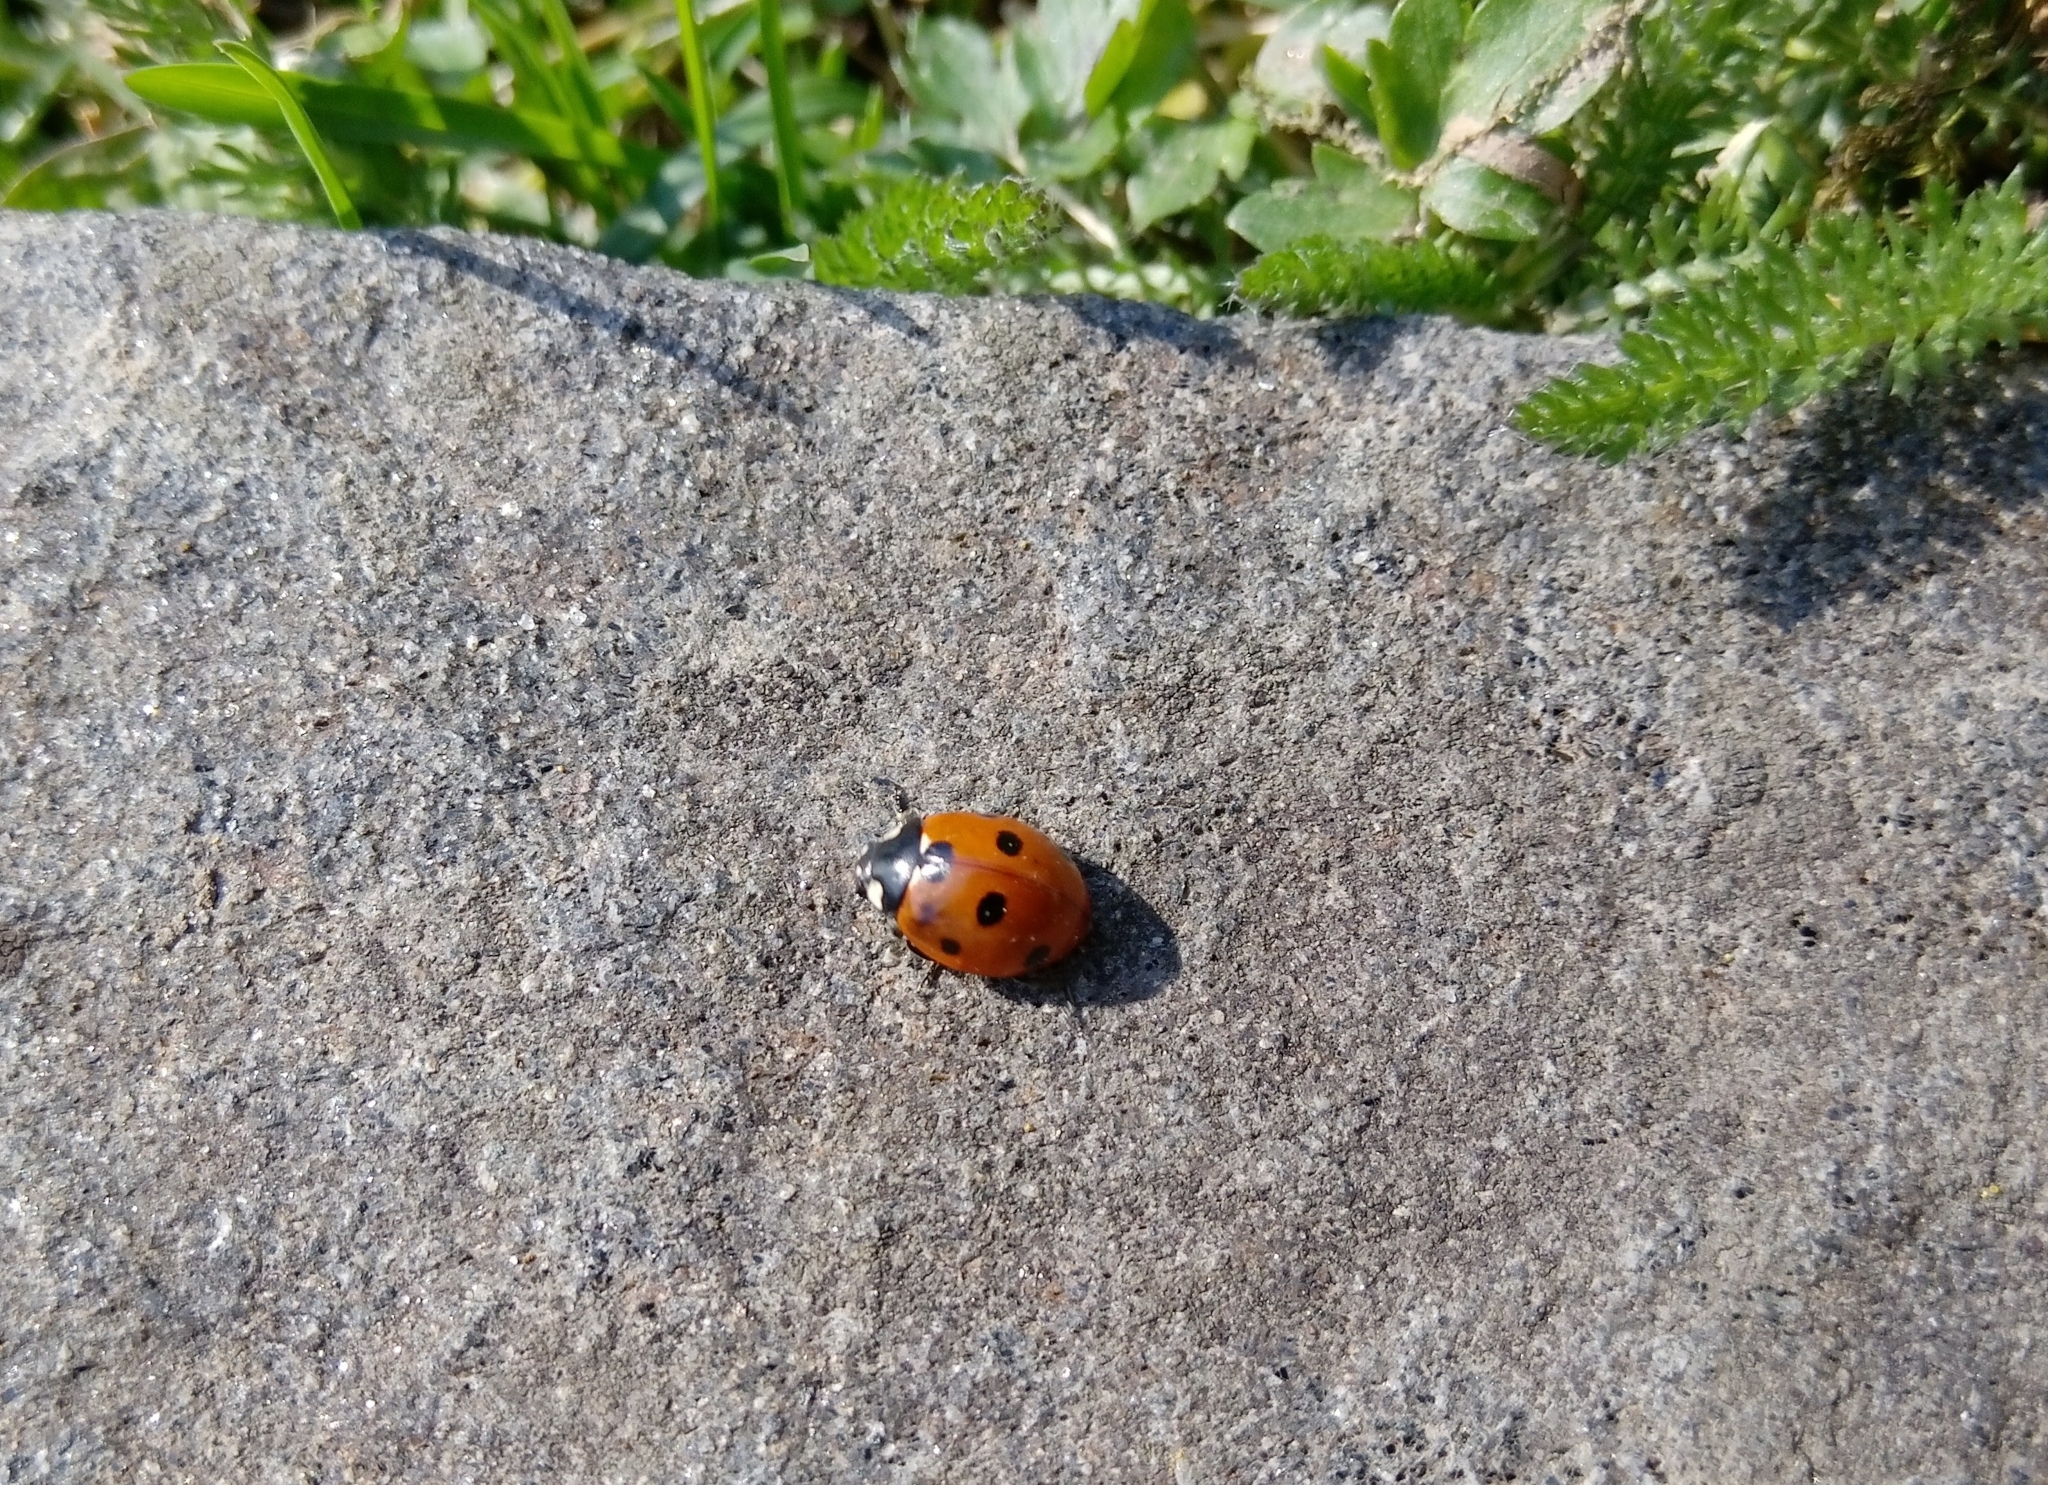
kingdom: Animalia
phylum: Arthropoda
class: Insecta
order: Coleoptera
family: Coccinellidae
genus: Coccinella
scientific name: Coccinella septempunctata
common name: Sevenspotted lady beetle
